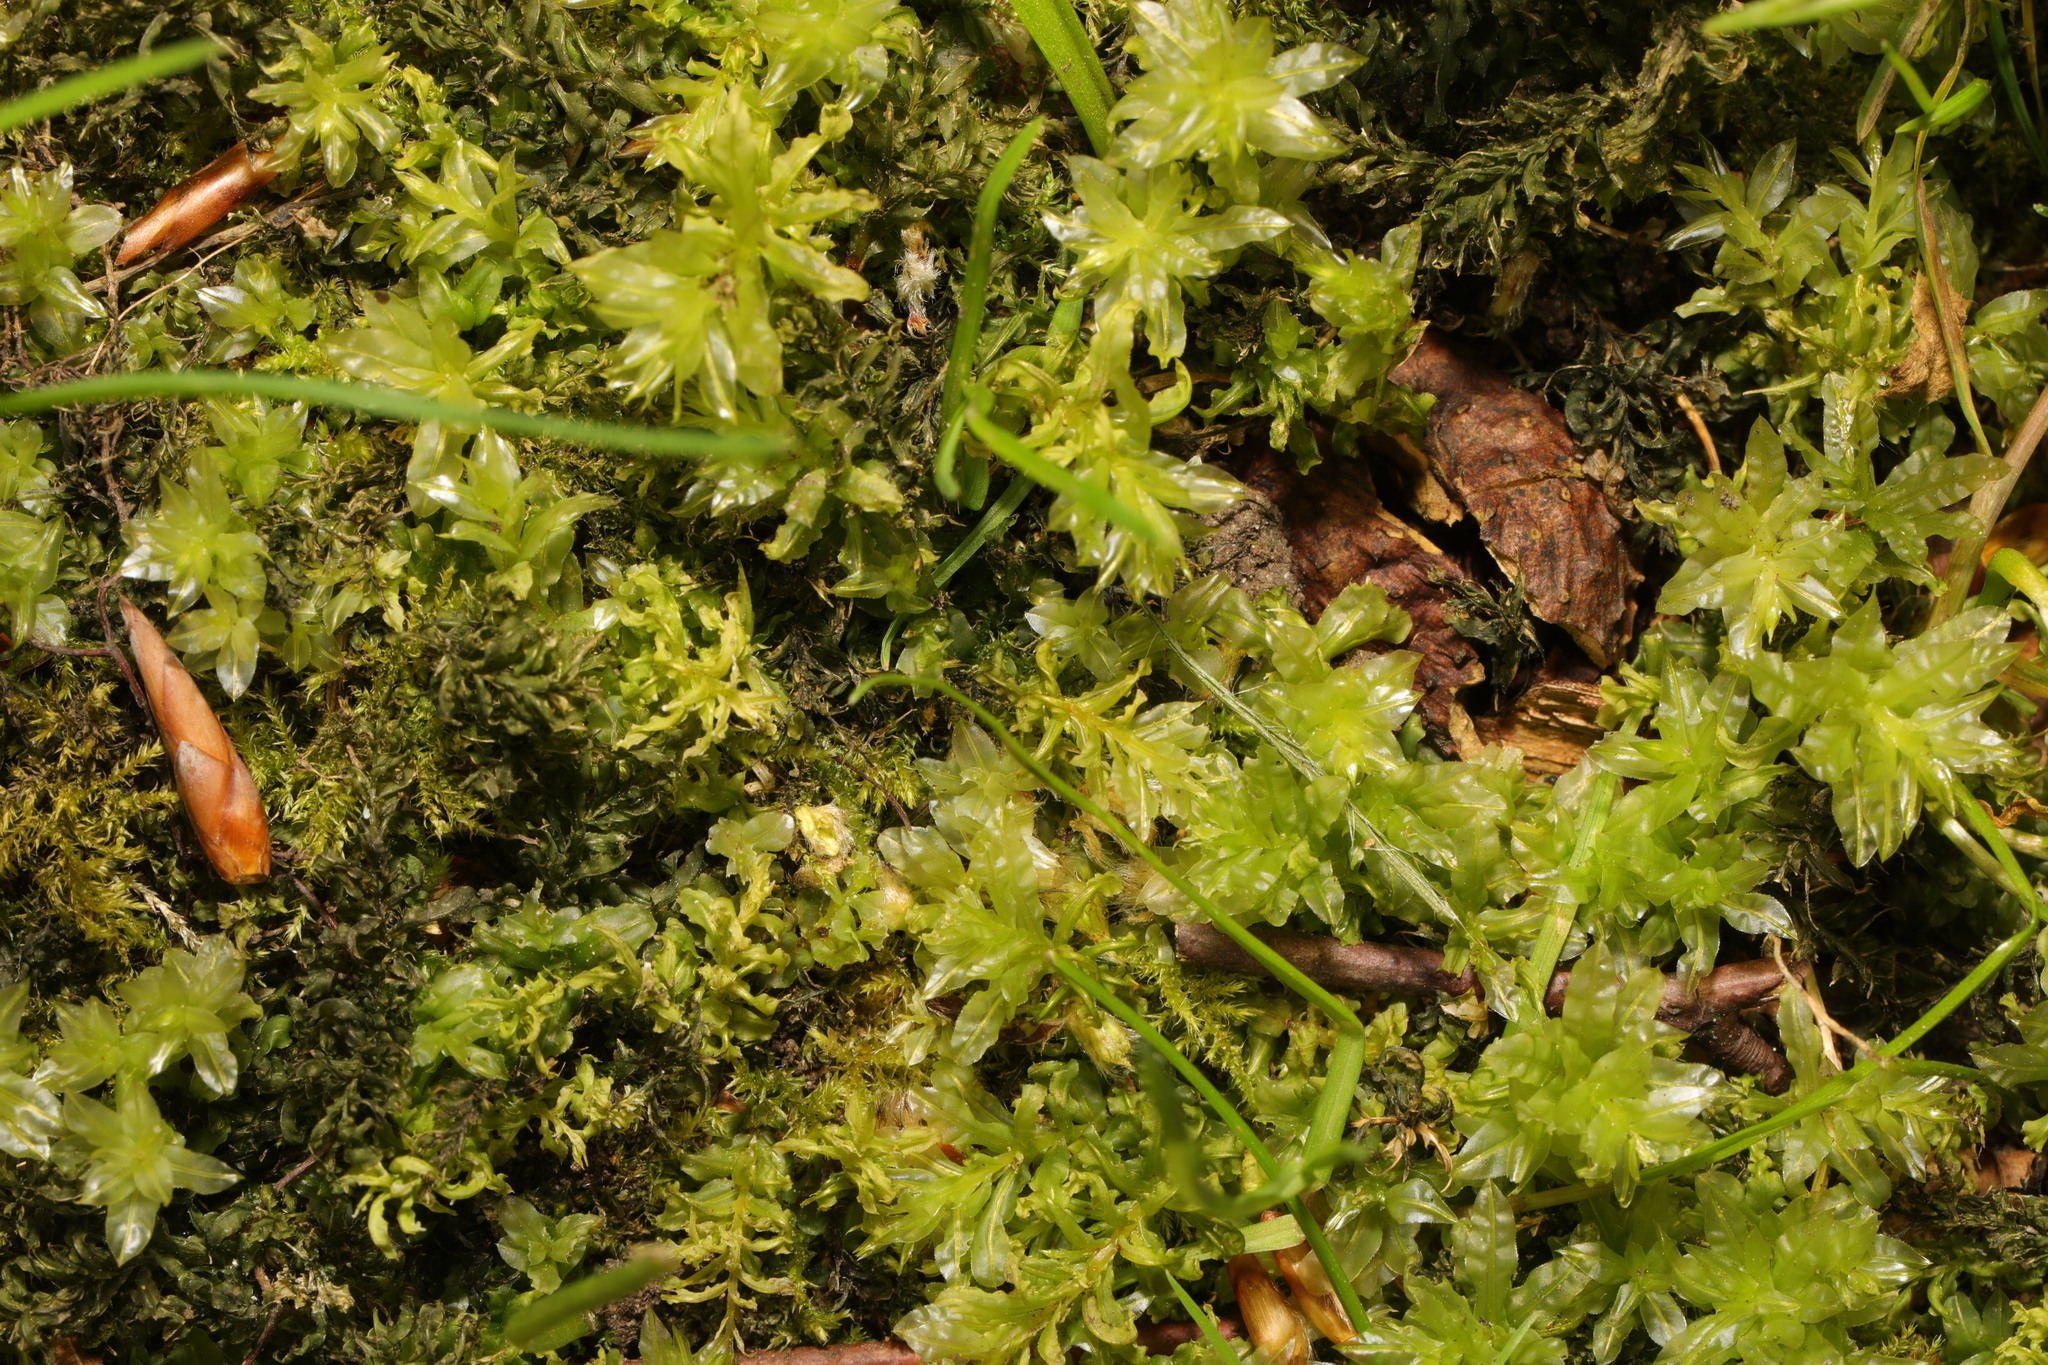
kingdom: Plantae
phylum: Bryophyta
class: Bryopsida
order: Bryales
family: Mniaceae
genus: Plagiomnium
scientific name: Plagiomnium undulatum
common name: Hart's-tongue thyme-moss
